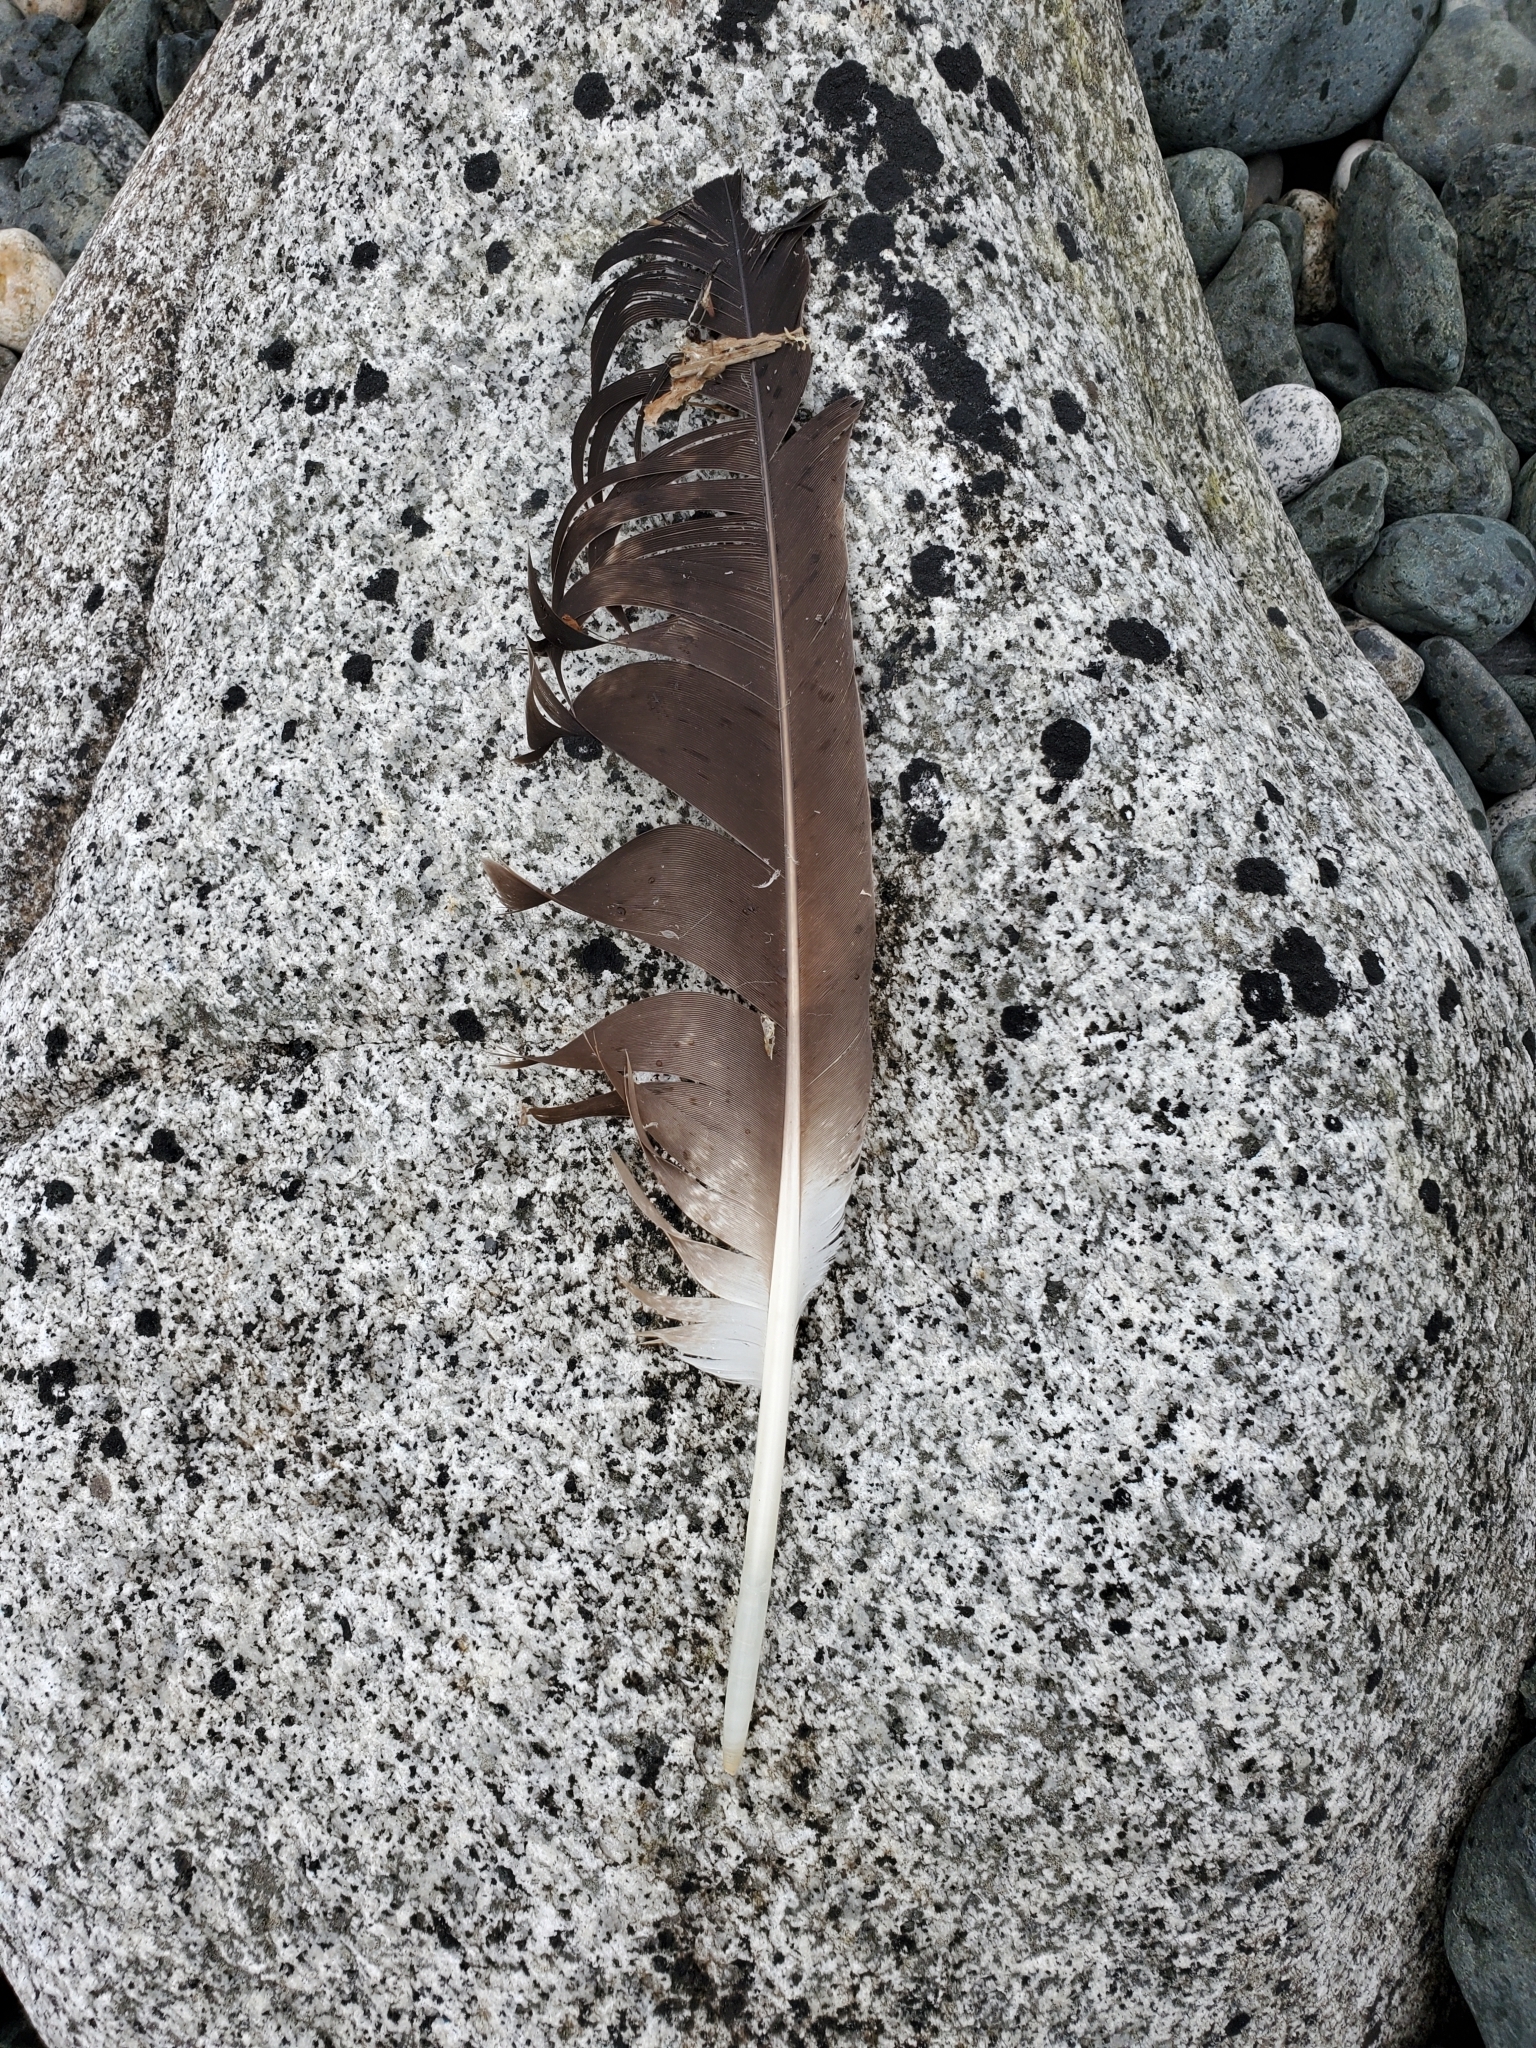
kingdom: Animalia
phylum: Chordata
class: Aves
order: Accipitriformes
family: Accipitridae
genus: Haliaeetus
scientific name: Haliaeetus leucocephalus
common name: Bald eagle
